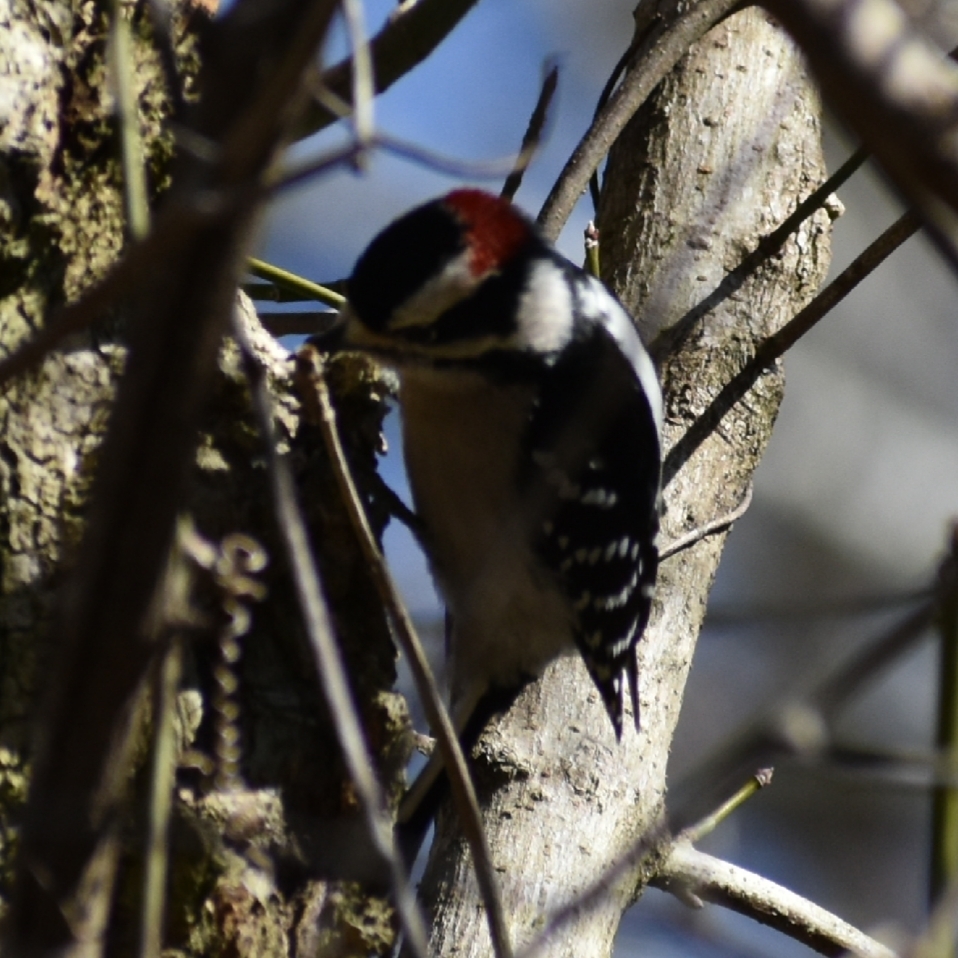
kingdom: Animalia
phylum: Chordata
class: Aves
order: Piciformes
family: Picidae
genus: Dryobates
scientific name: Dryobates pubescens
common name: Downy woodpecker
